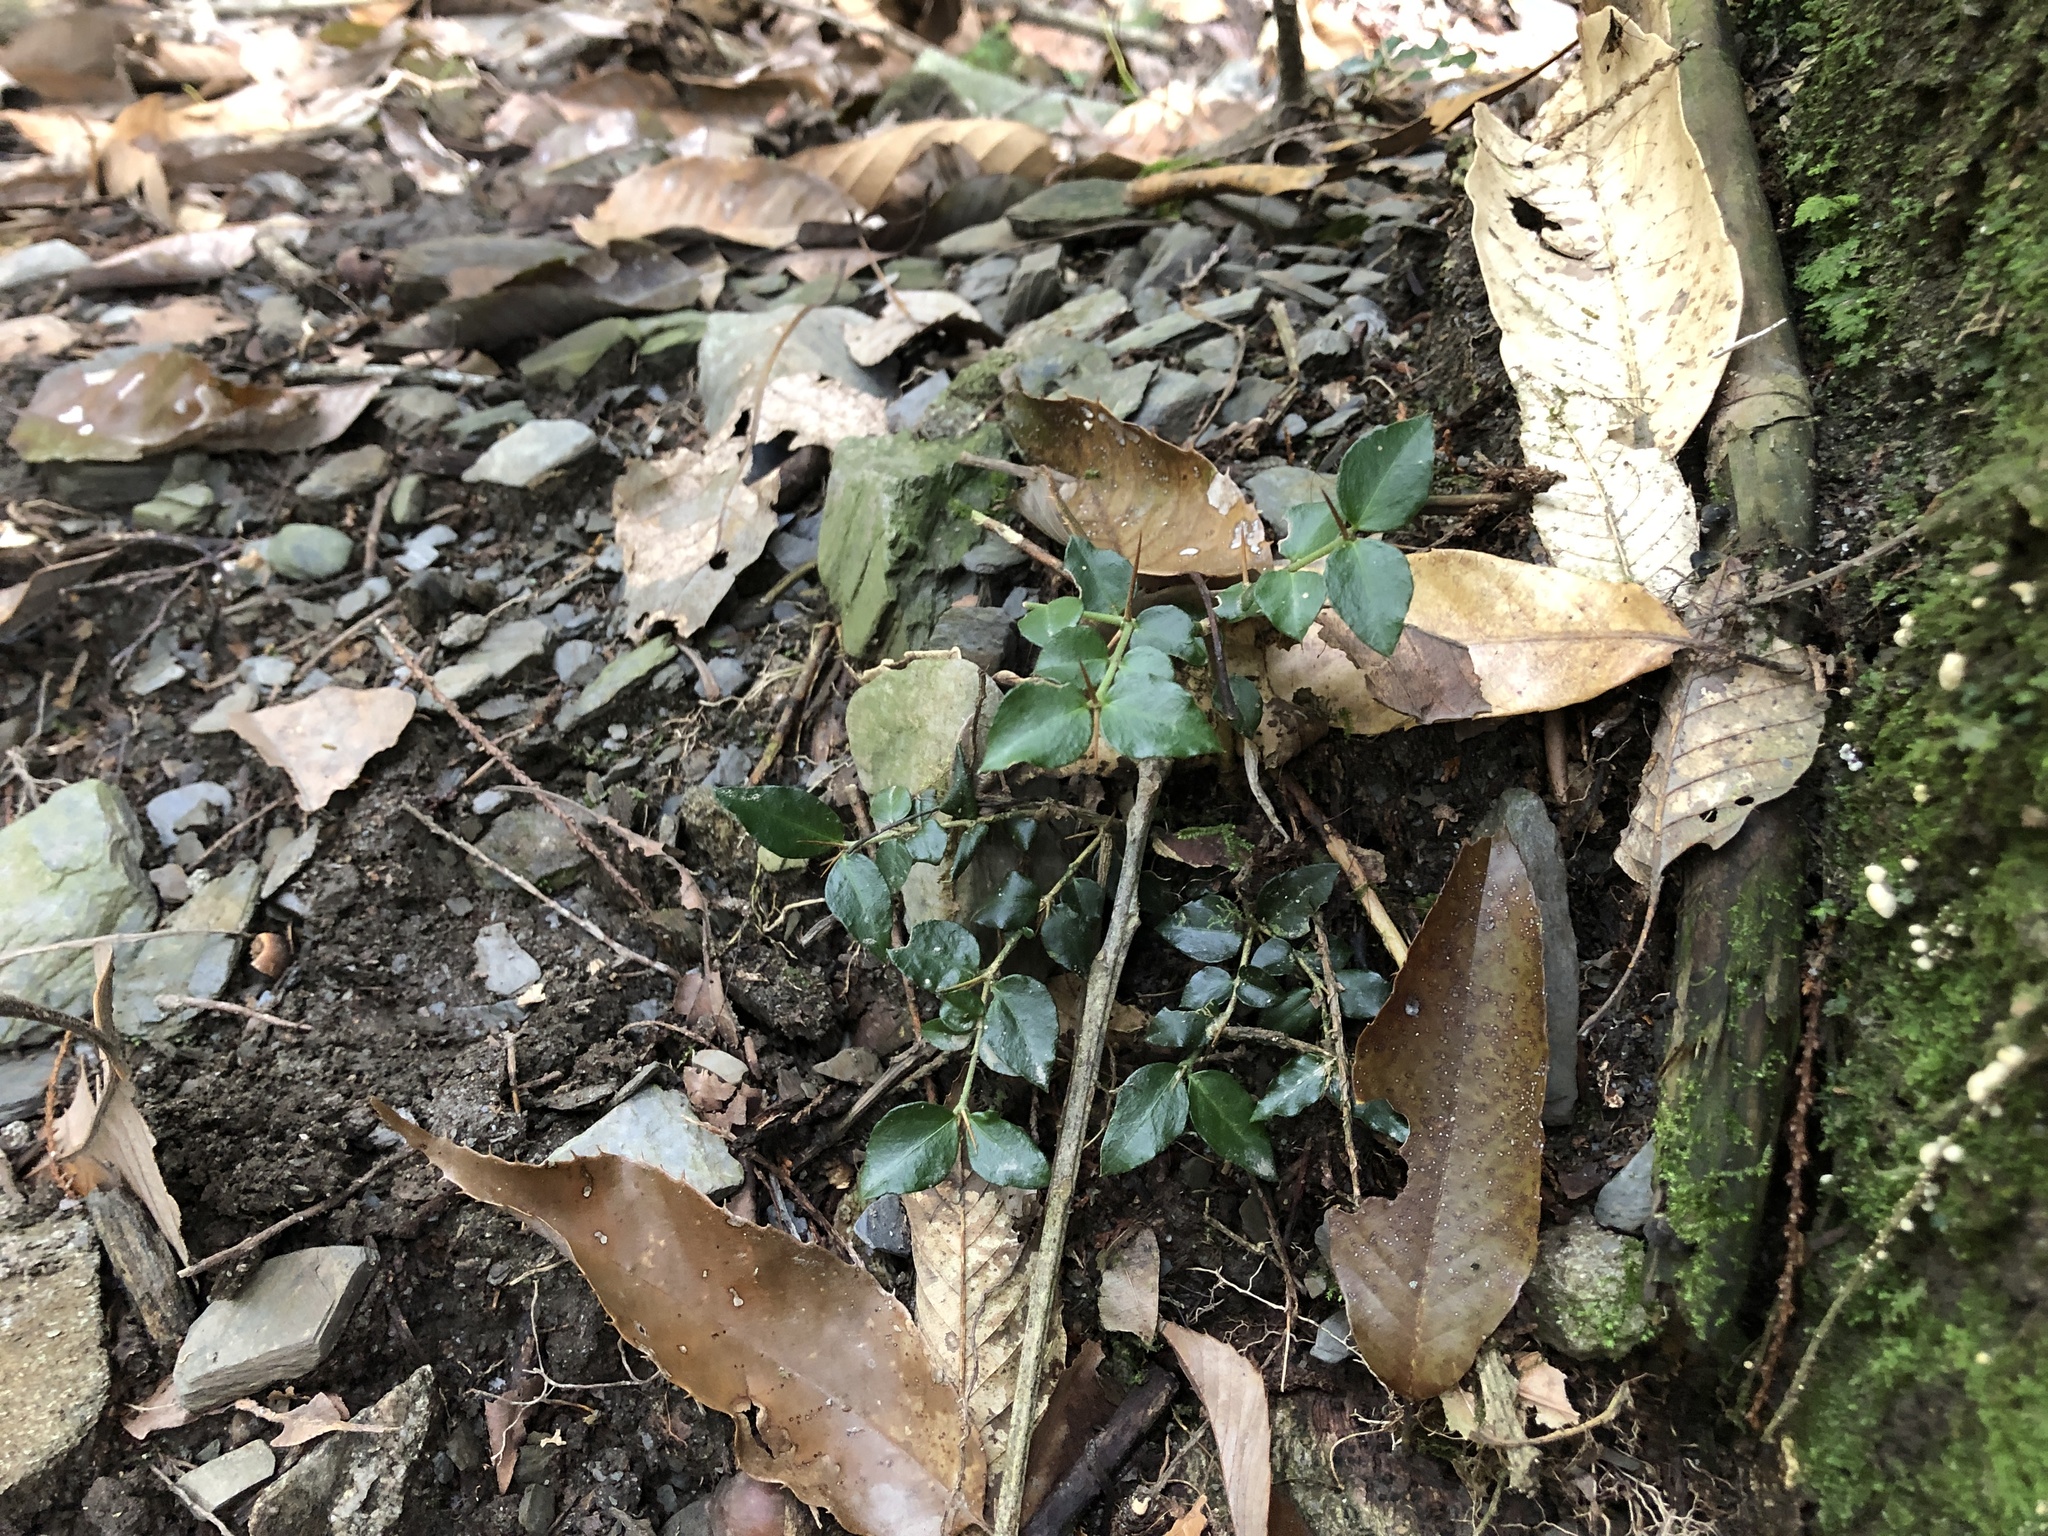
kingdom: Plantae
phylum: Tracheophyta
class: Magnoliopsida
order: Gentianales
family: Rubiaceae
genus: Damnacanthus
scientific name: Damnacanthus indicus
